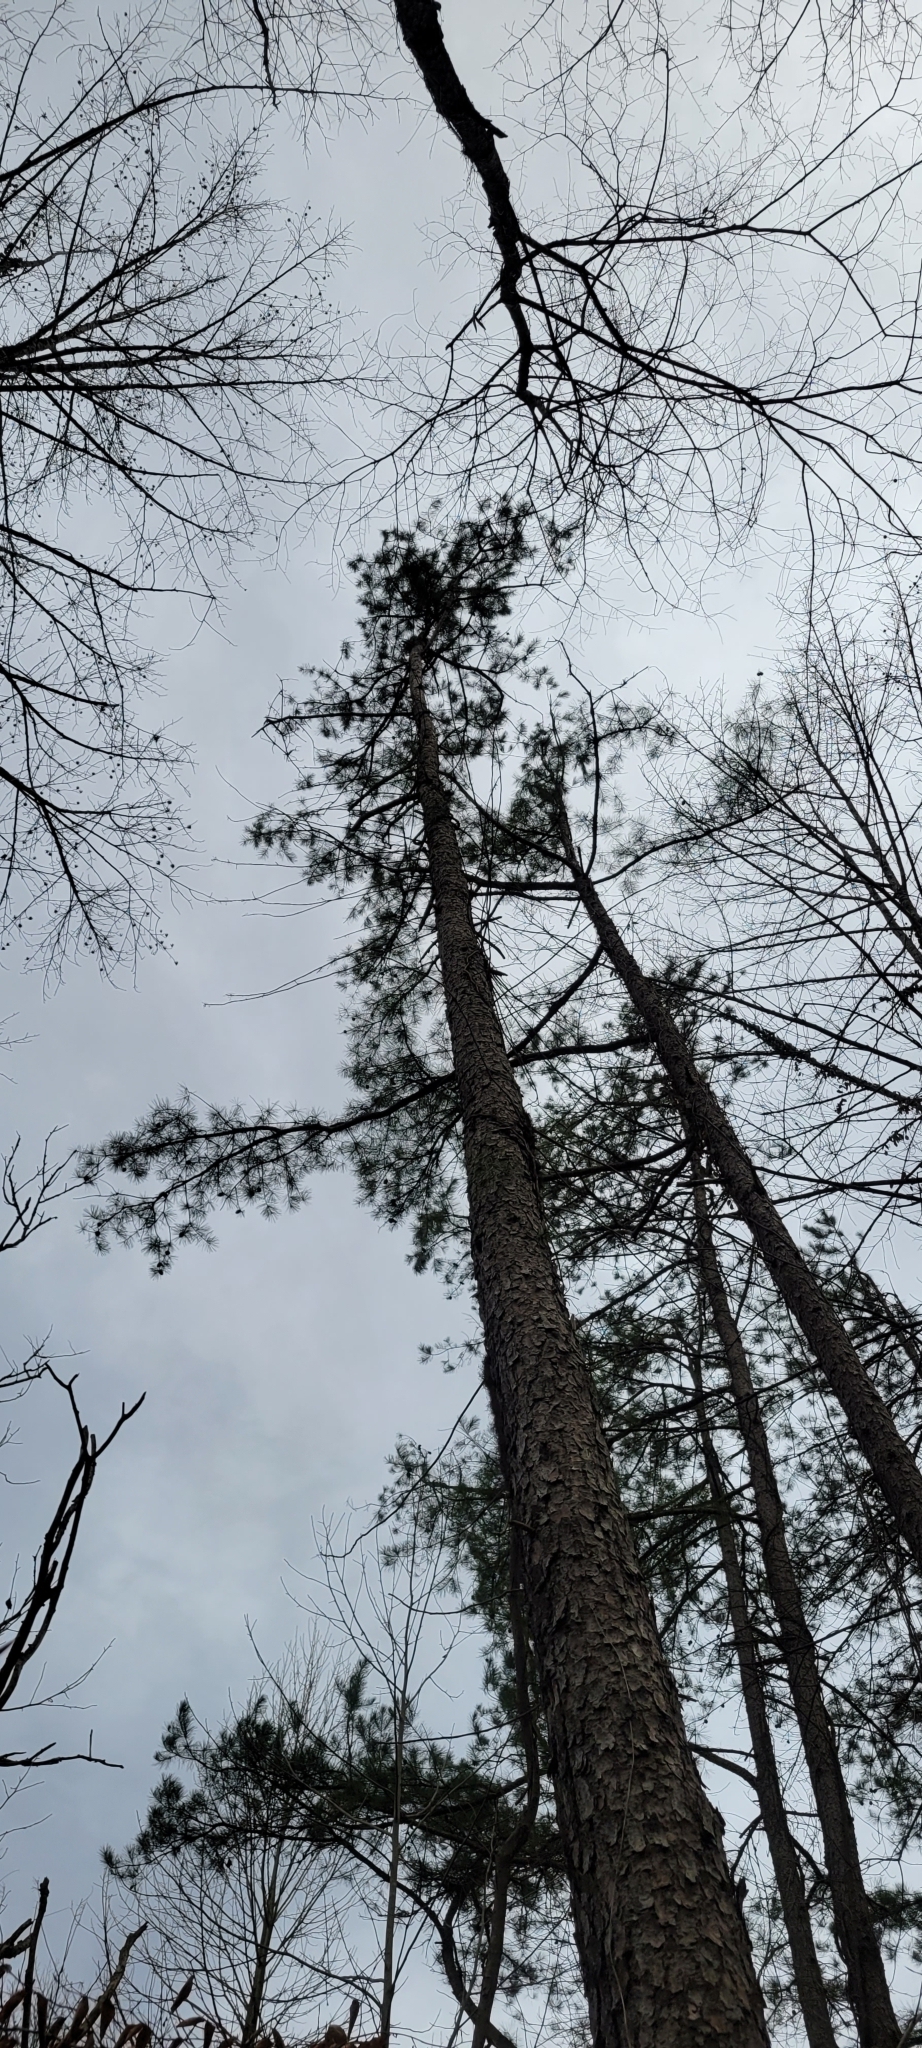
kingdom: Plantae
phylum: Tracheophyta
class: Pinopsida
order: Pinales
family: Pinaceae
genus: Pinus
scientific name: Pinus echinata
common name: Shortleaf pine
